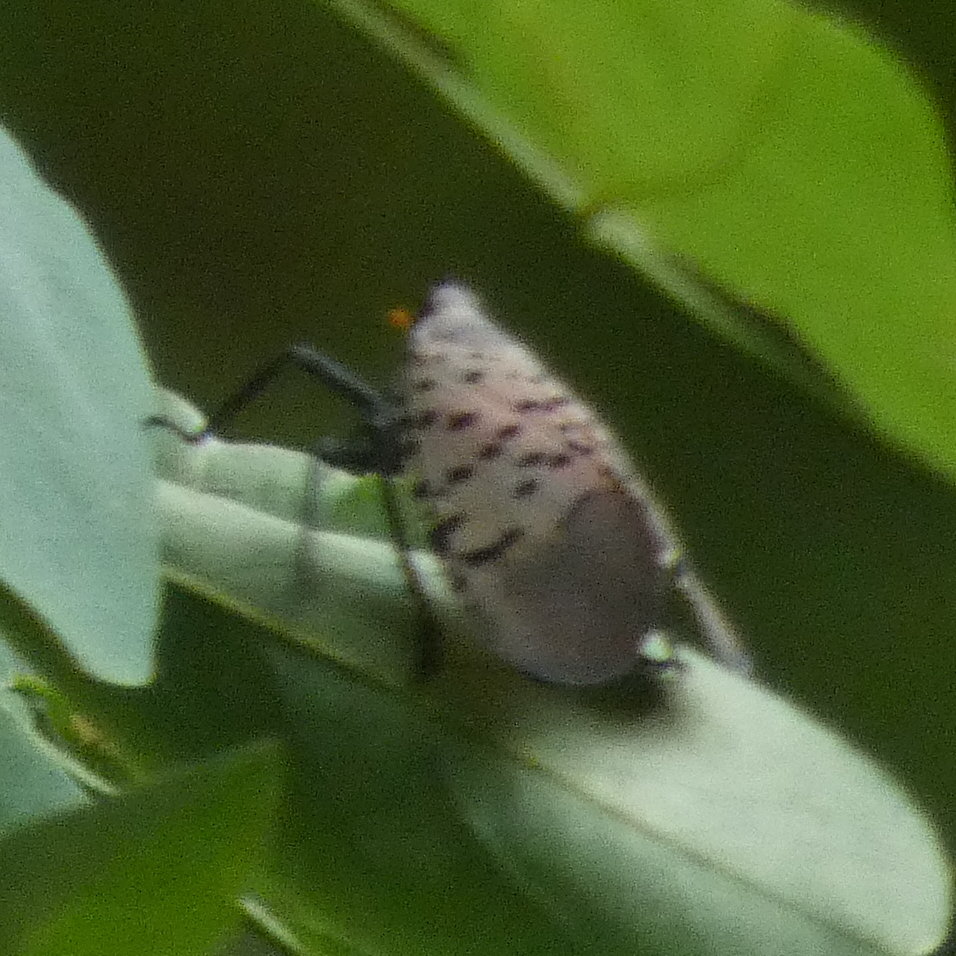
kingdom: Animalia
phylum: Arthropoda
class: Insecta
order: Hemiptera
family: Fulgoridae
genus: Lycorma
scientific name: Lycorma delicatula
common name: Spotted lanternfly
